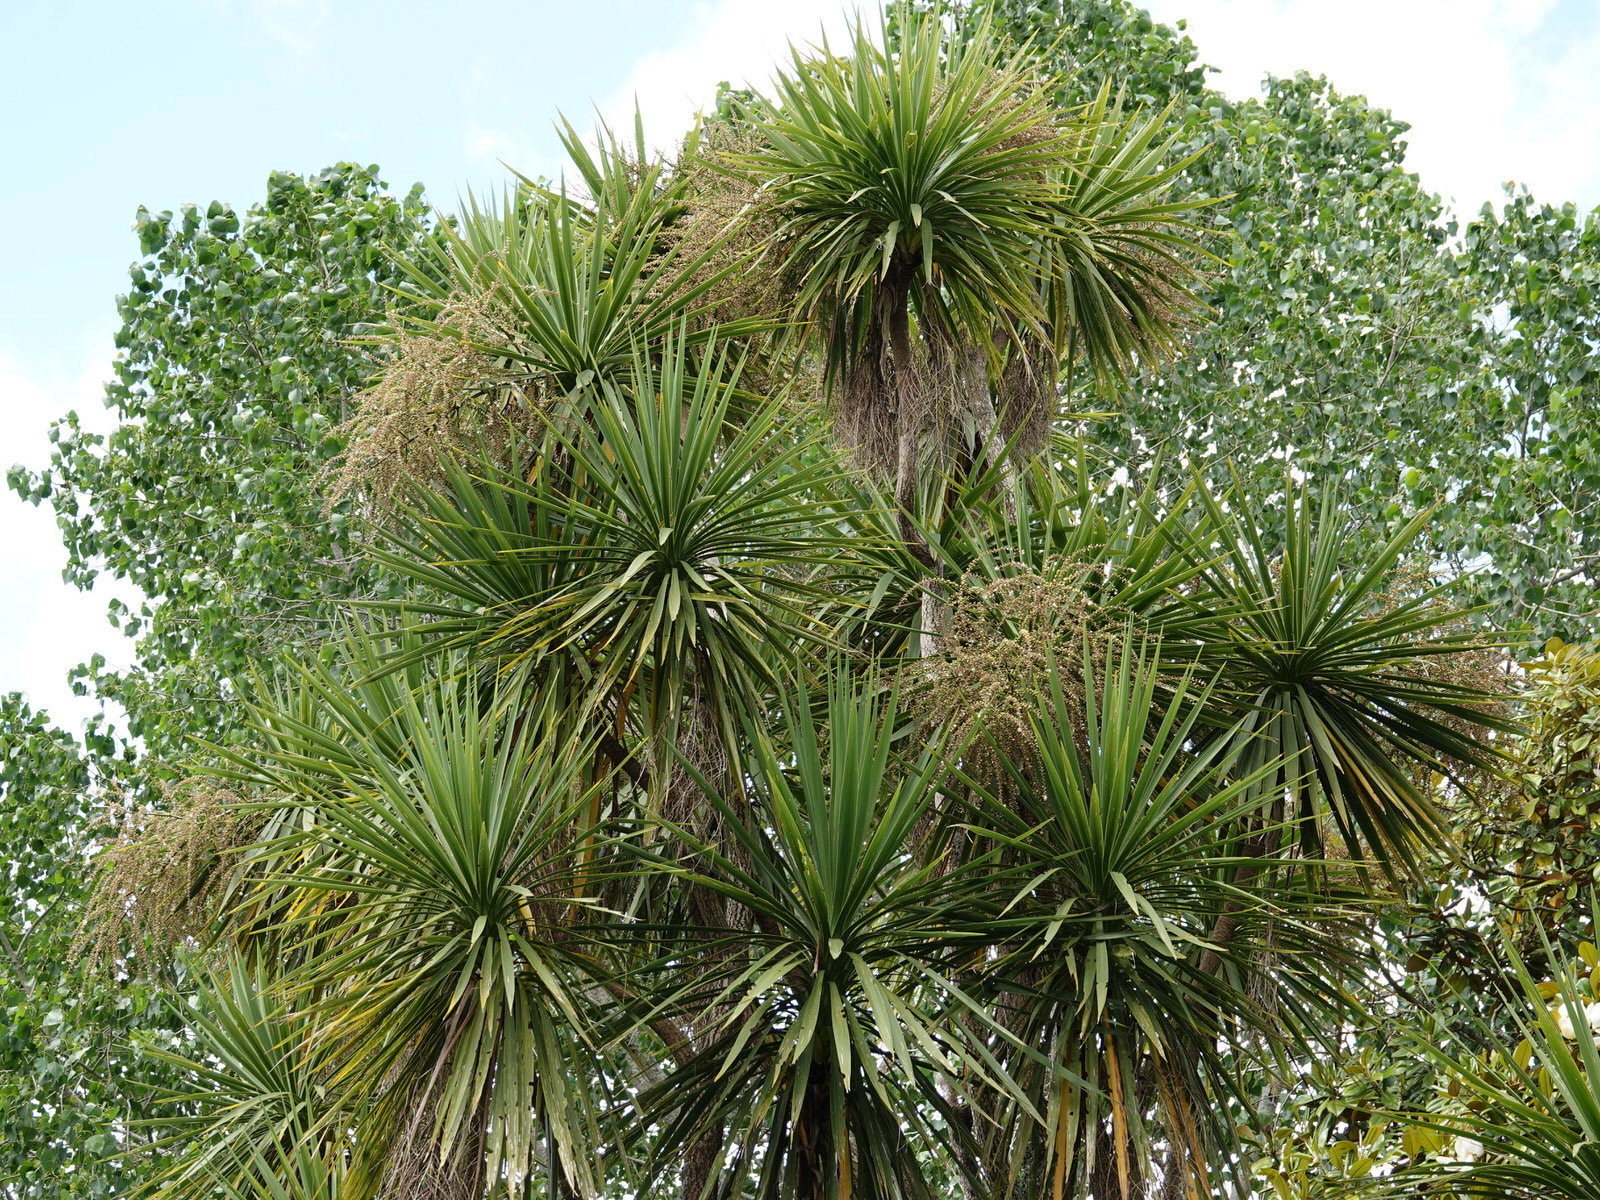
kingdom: Plantae
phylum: Tracheophyta
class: Liliopsida
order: Asparagales
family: Asparagaceae
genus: Cordyline
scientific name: Cordyline australis
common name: Cabbage-palm
